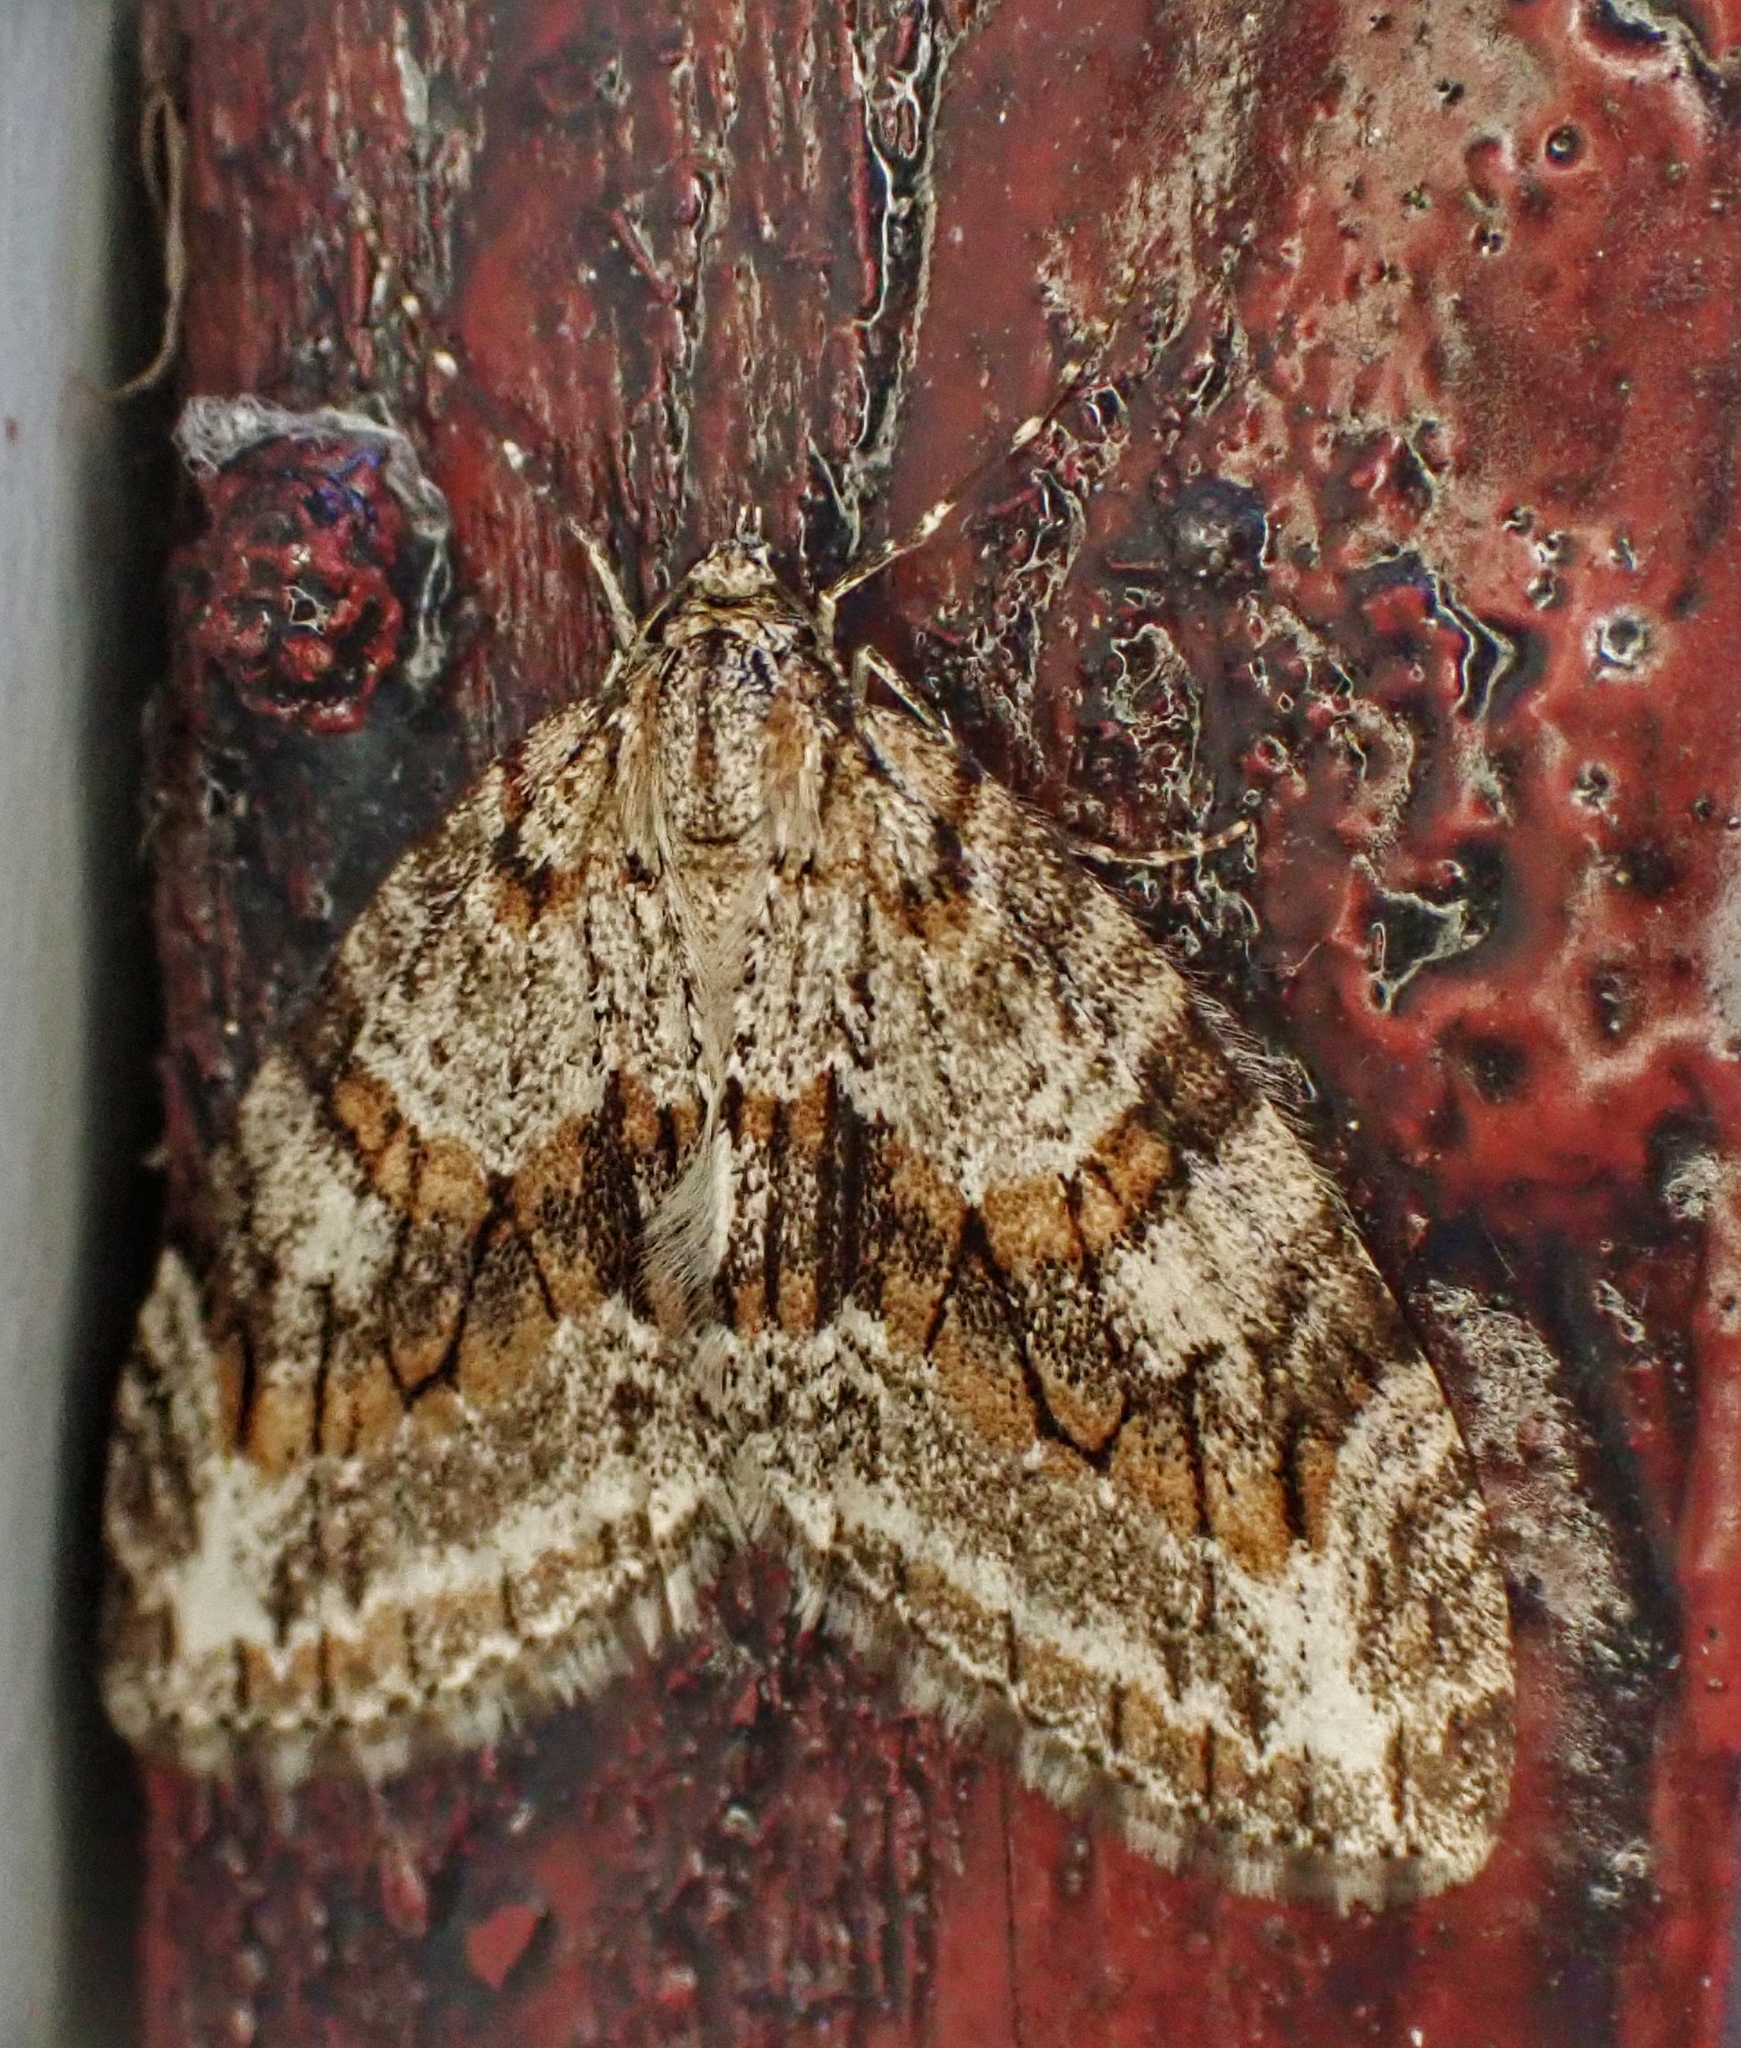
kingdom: Animalia
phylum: Arthropoda
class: Insecta
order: Lepidoptera
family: Geometridae
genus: Trichopteryx
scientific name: Trichopteryx polycommata
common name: Barred tooth-striped
